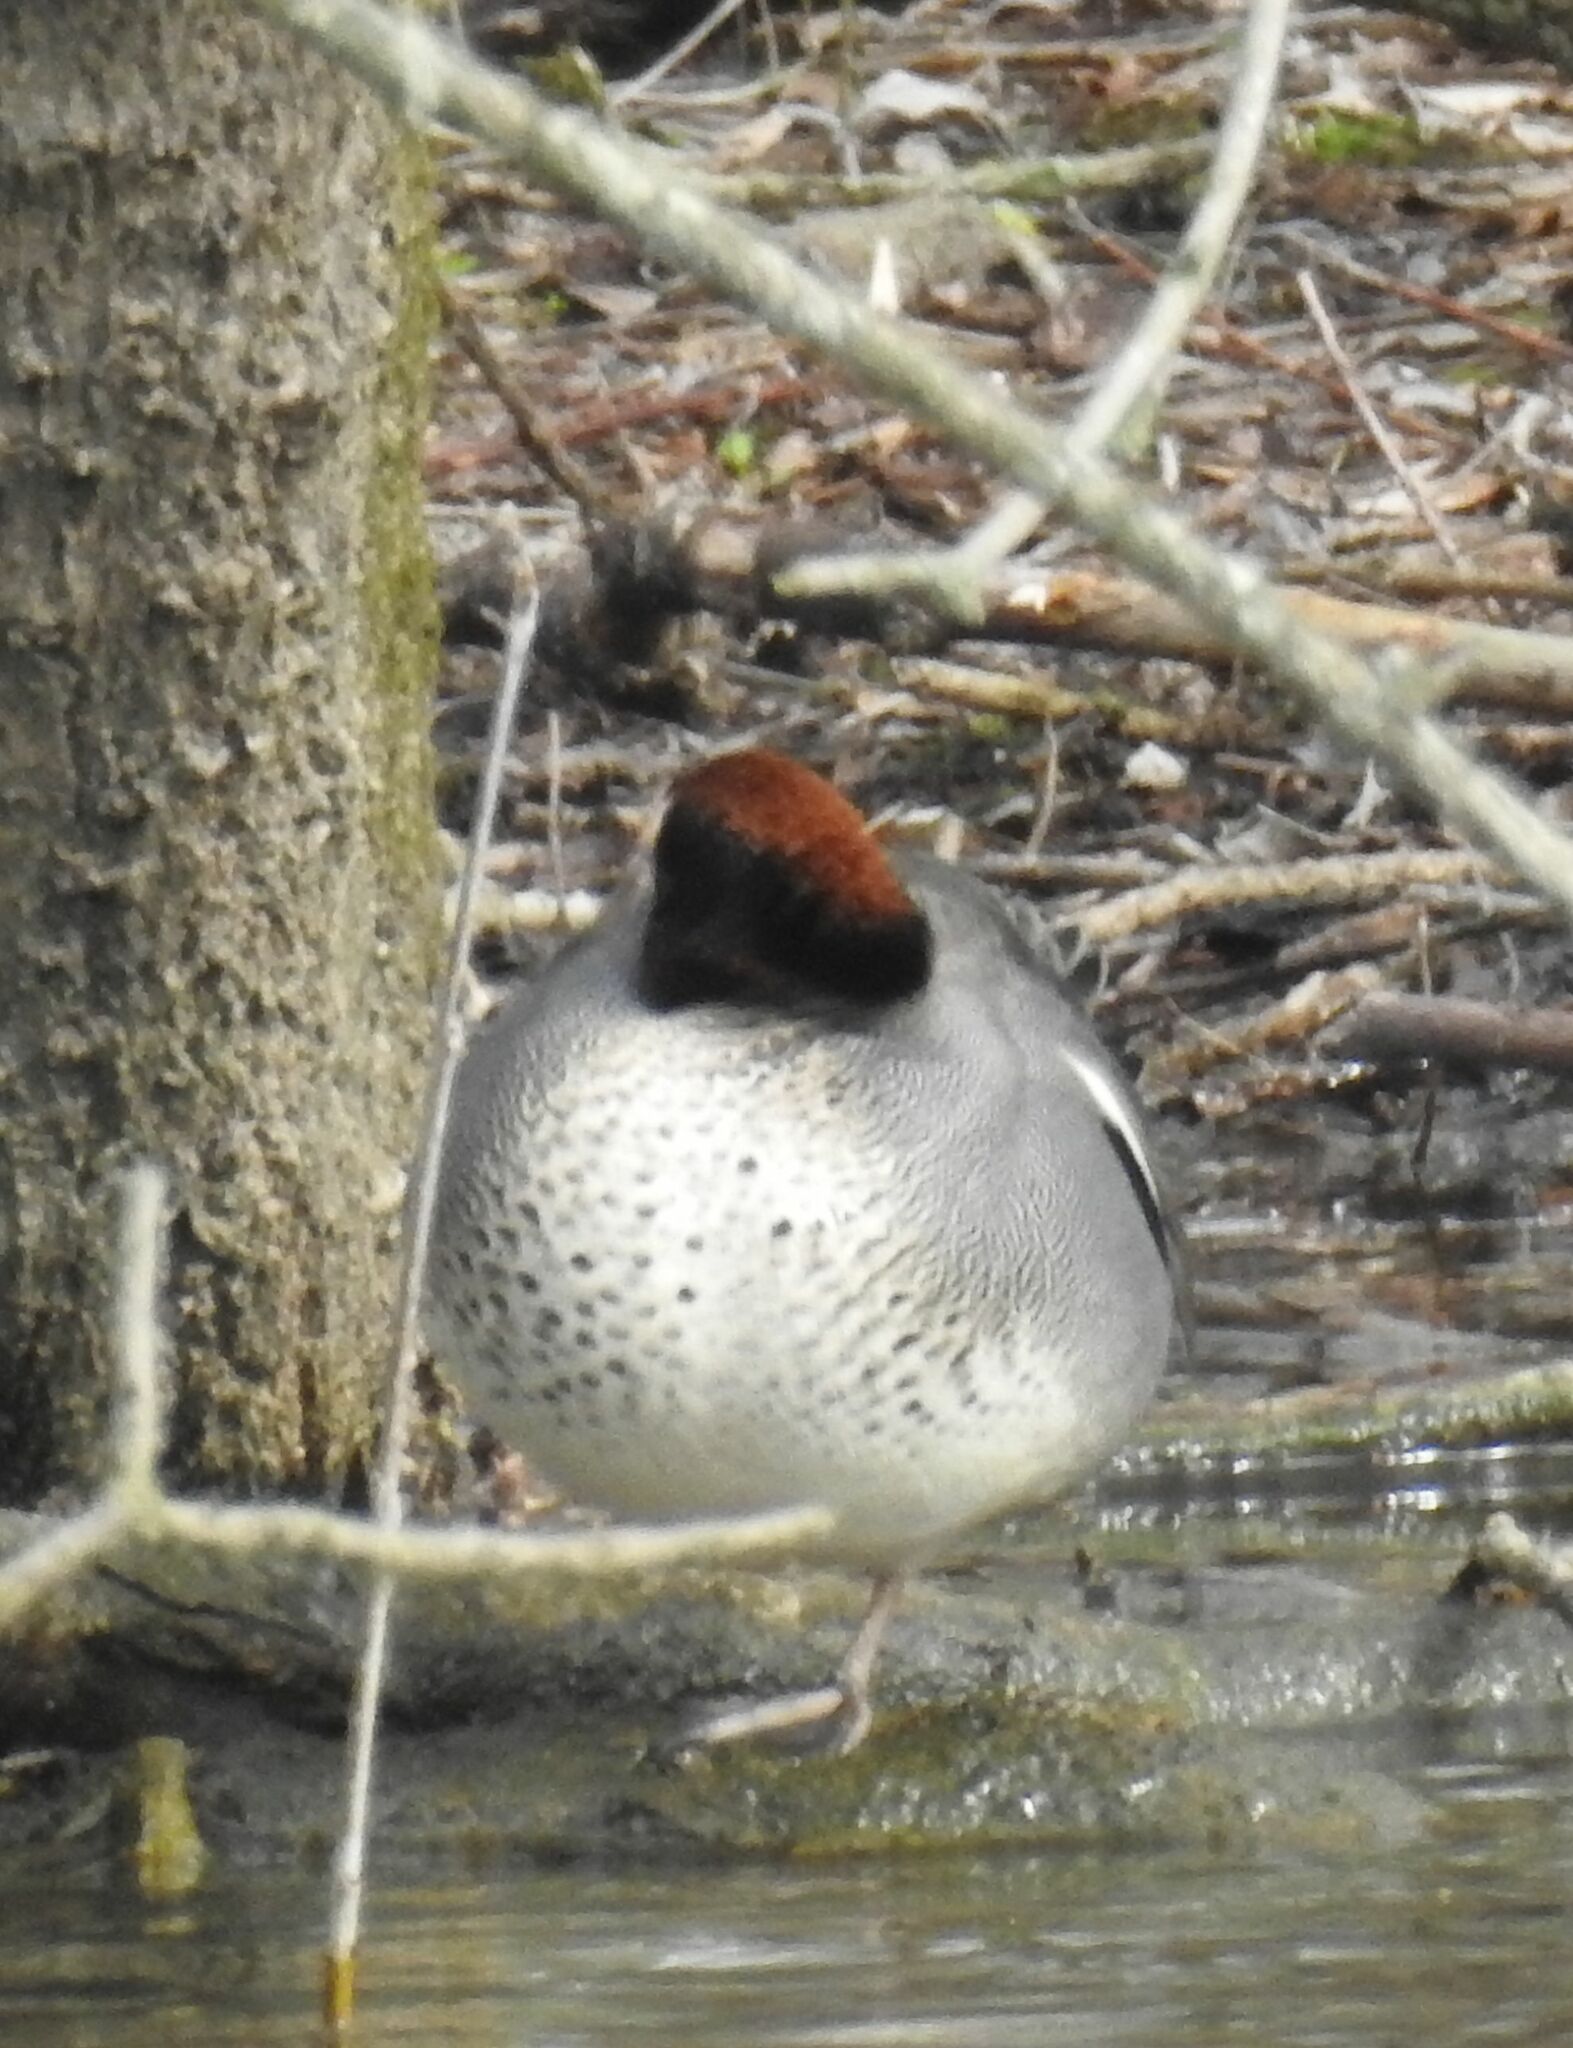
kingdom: Animalia
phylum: Chordata
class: Aves
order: Anseriformes
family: Anatidae
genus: Anas
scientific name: Anas crecca
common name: Eurasian teal
